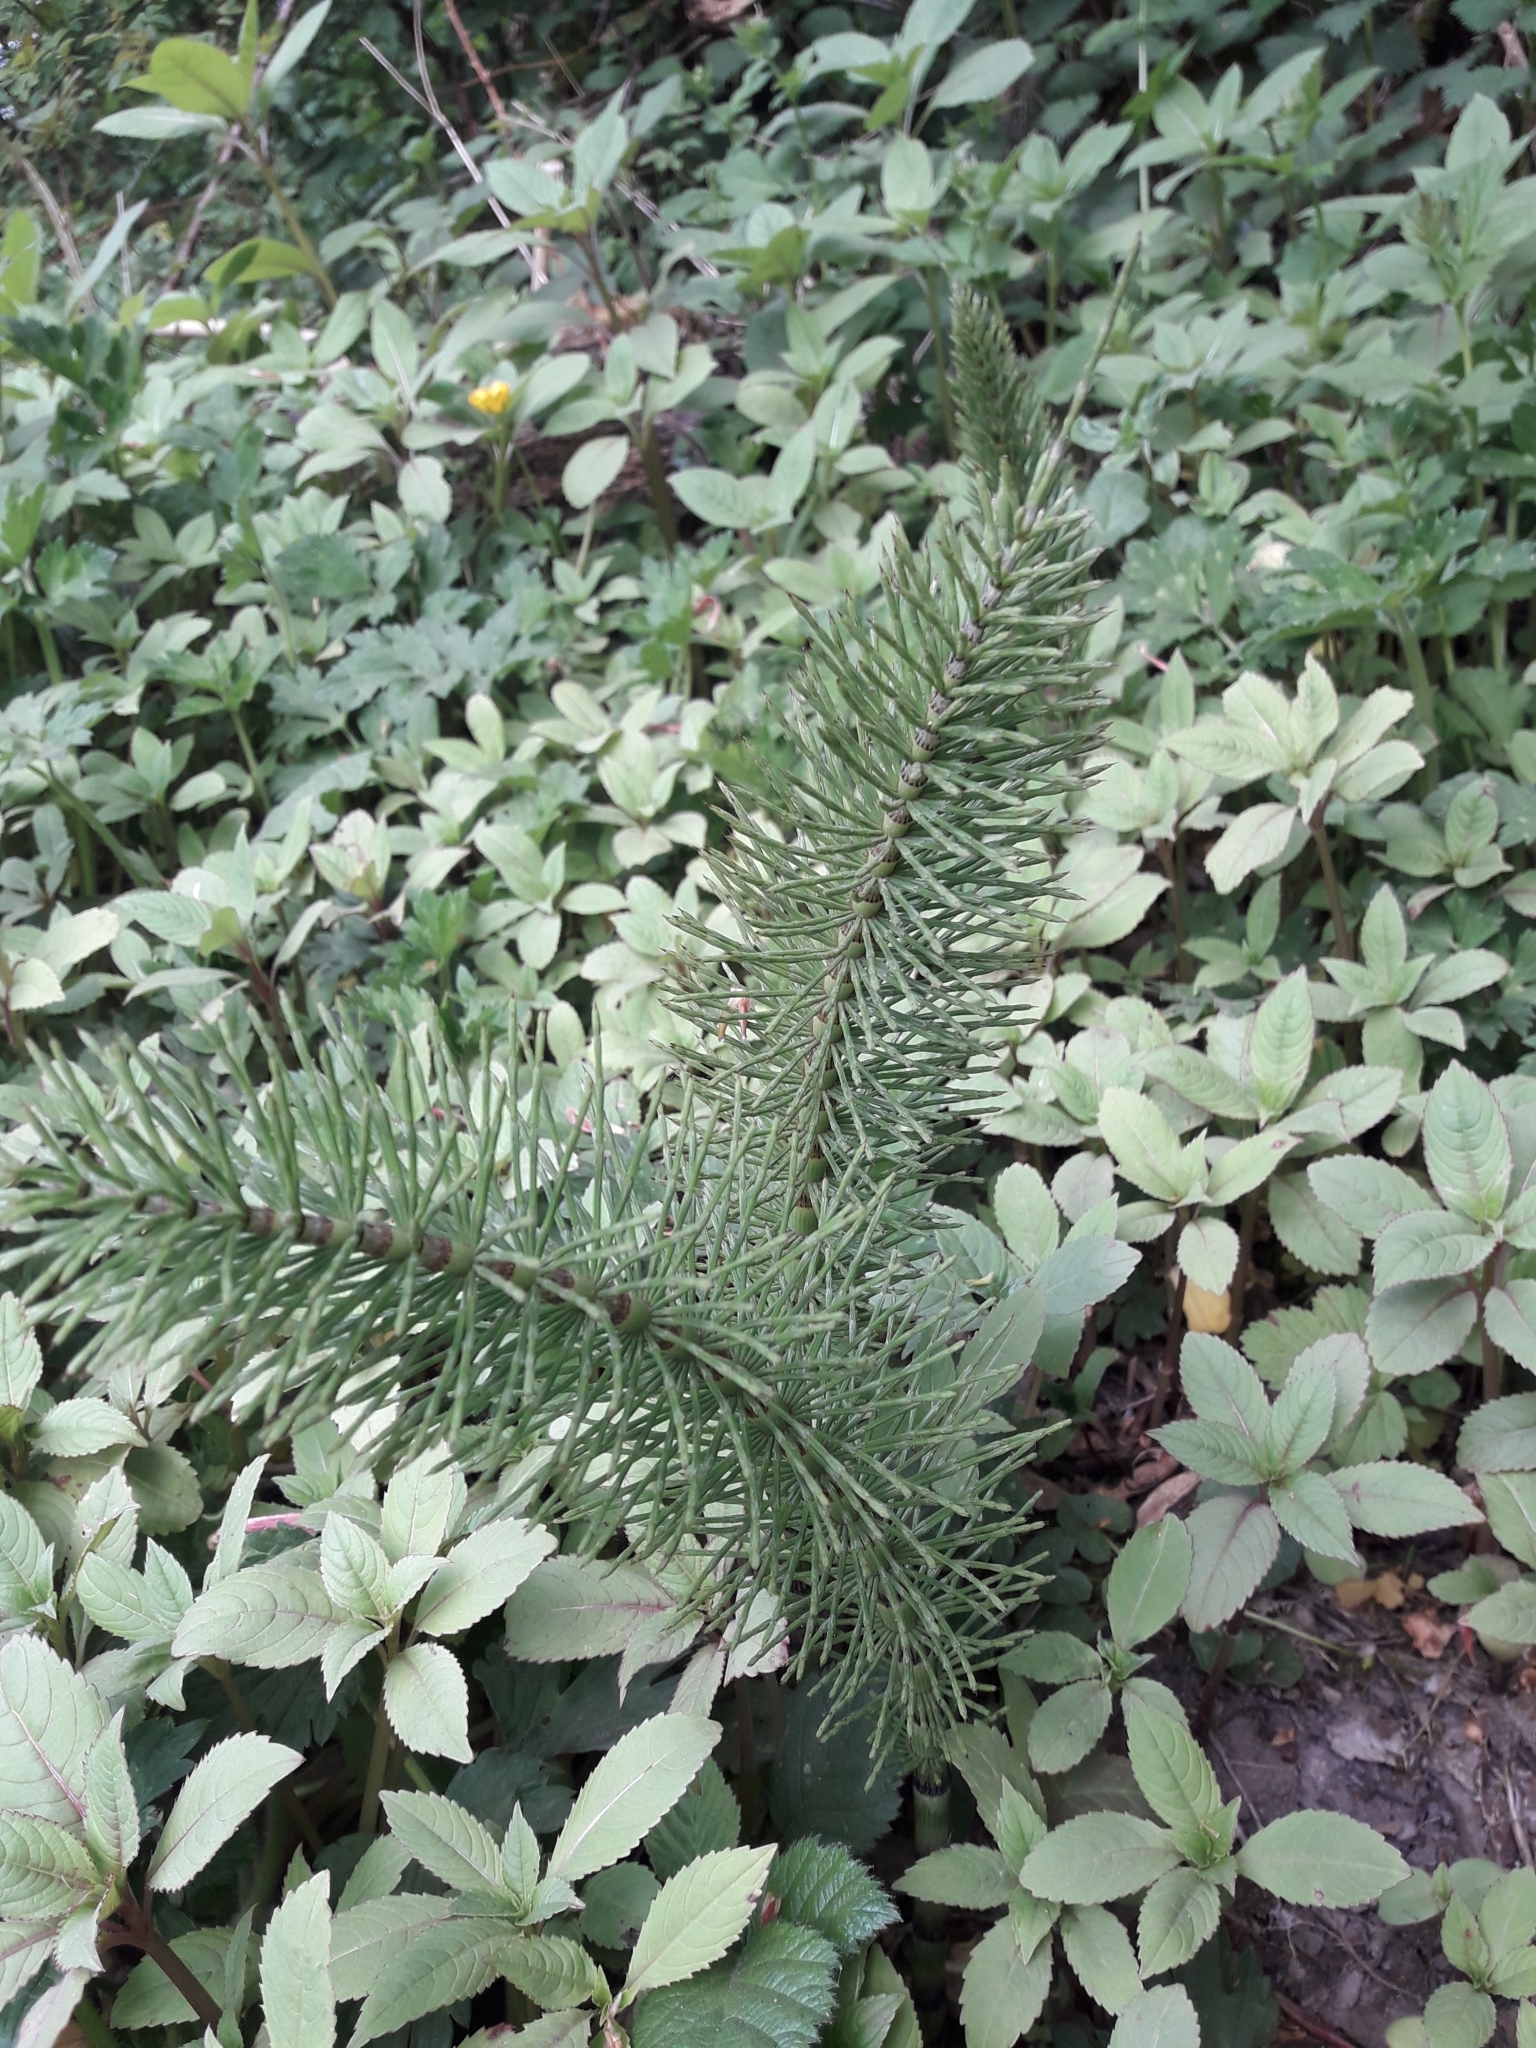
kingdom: Plantae
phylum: Tracheophyta
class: Polypodiopsida
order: Equisetales
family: Equisetaceae
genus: Equisetum
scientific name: Equisetum telmateia
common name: Great horsetail
